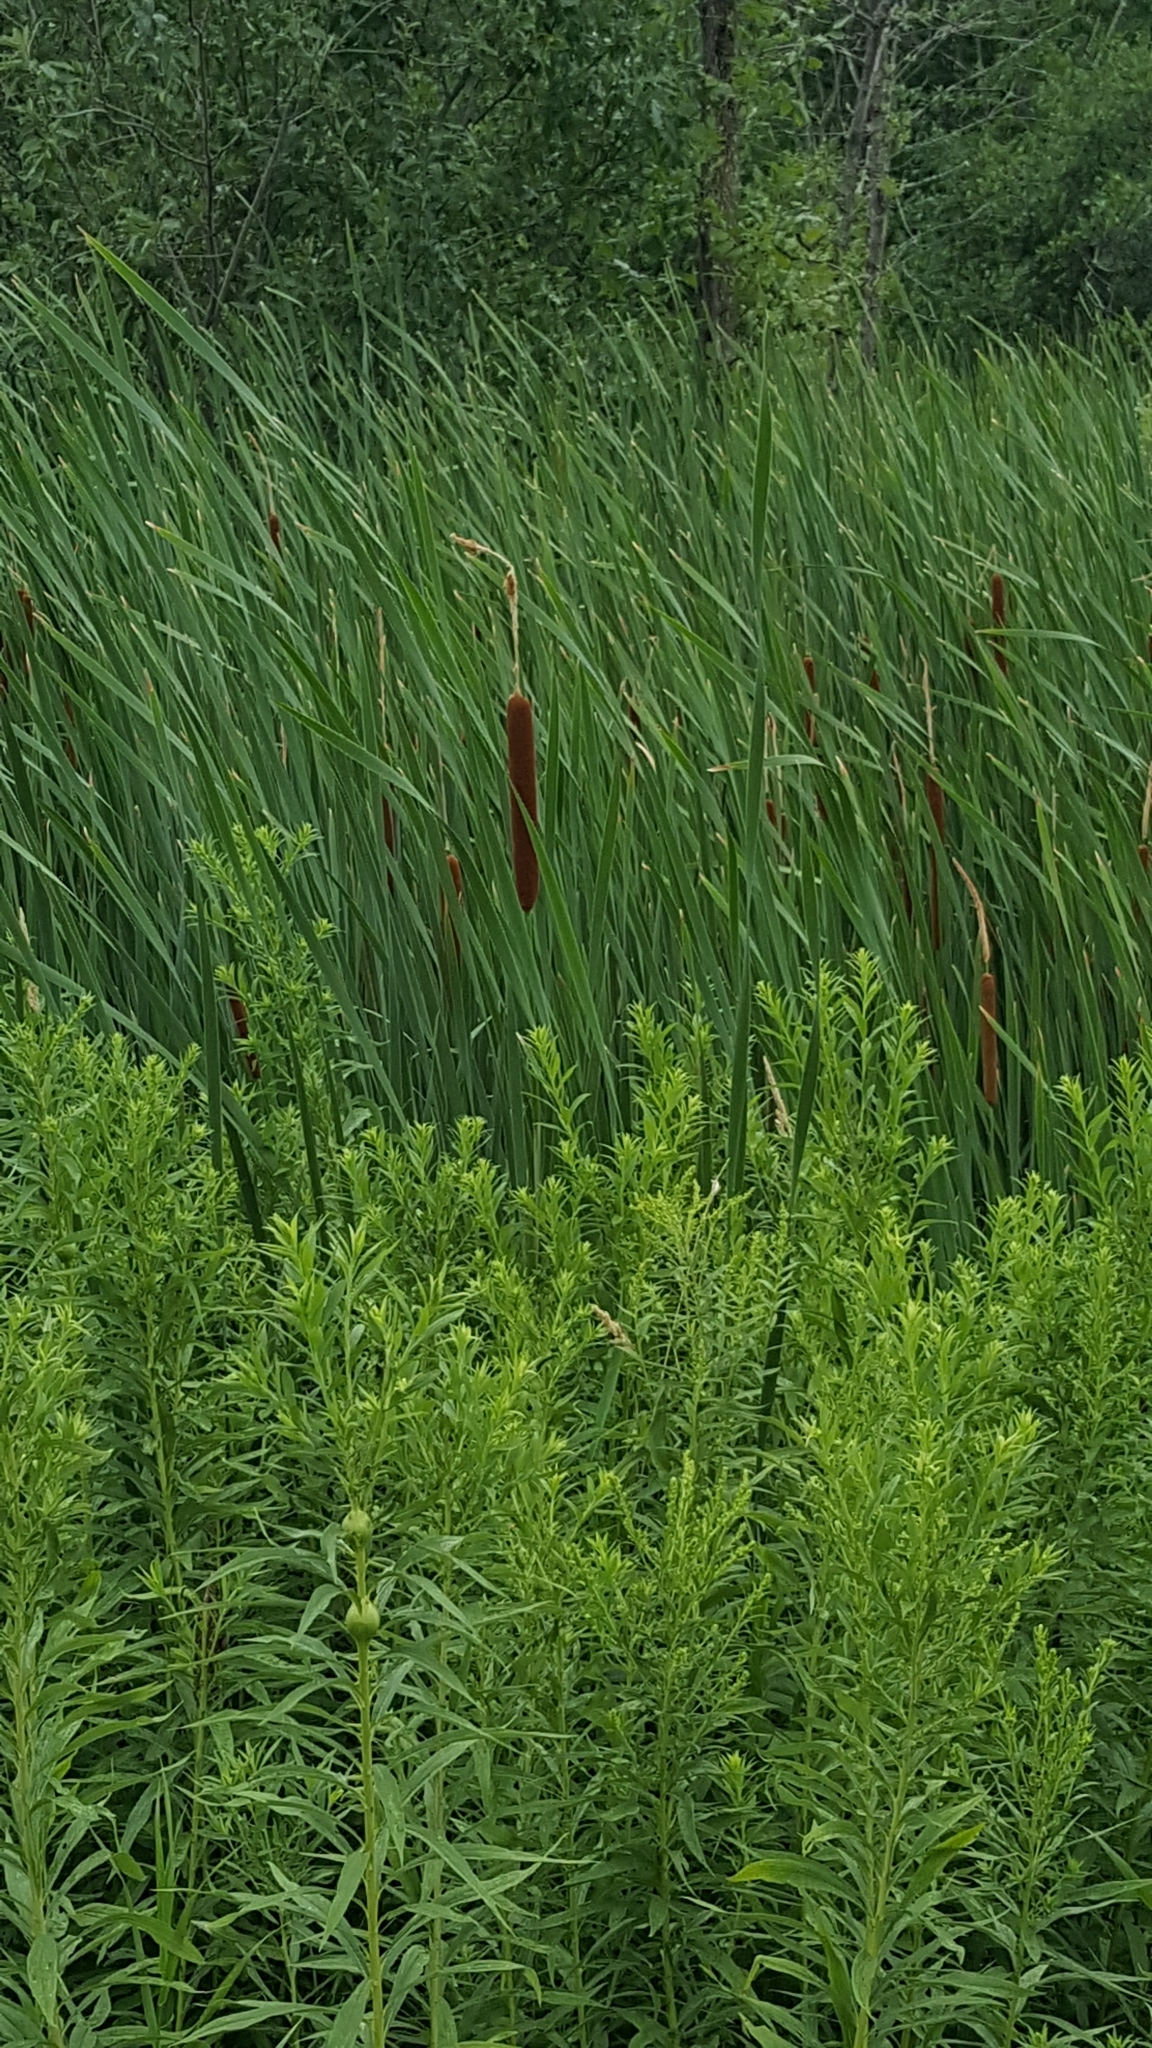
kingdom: Plantae
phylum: Tracheophyta
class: Liliopsida
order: Poales
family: Typhaceae
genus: Typha
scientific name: Typha latifolia
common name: Broadleaf cattail
